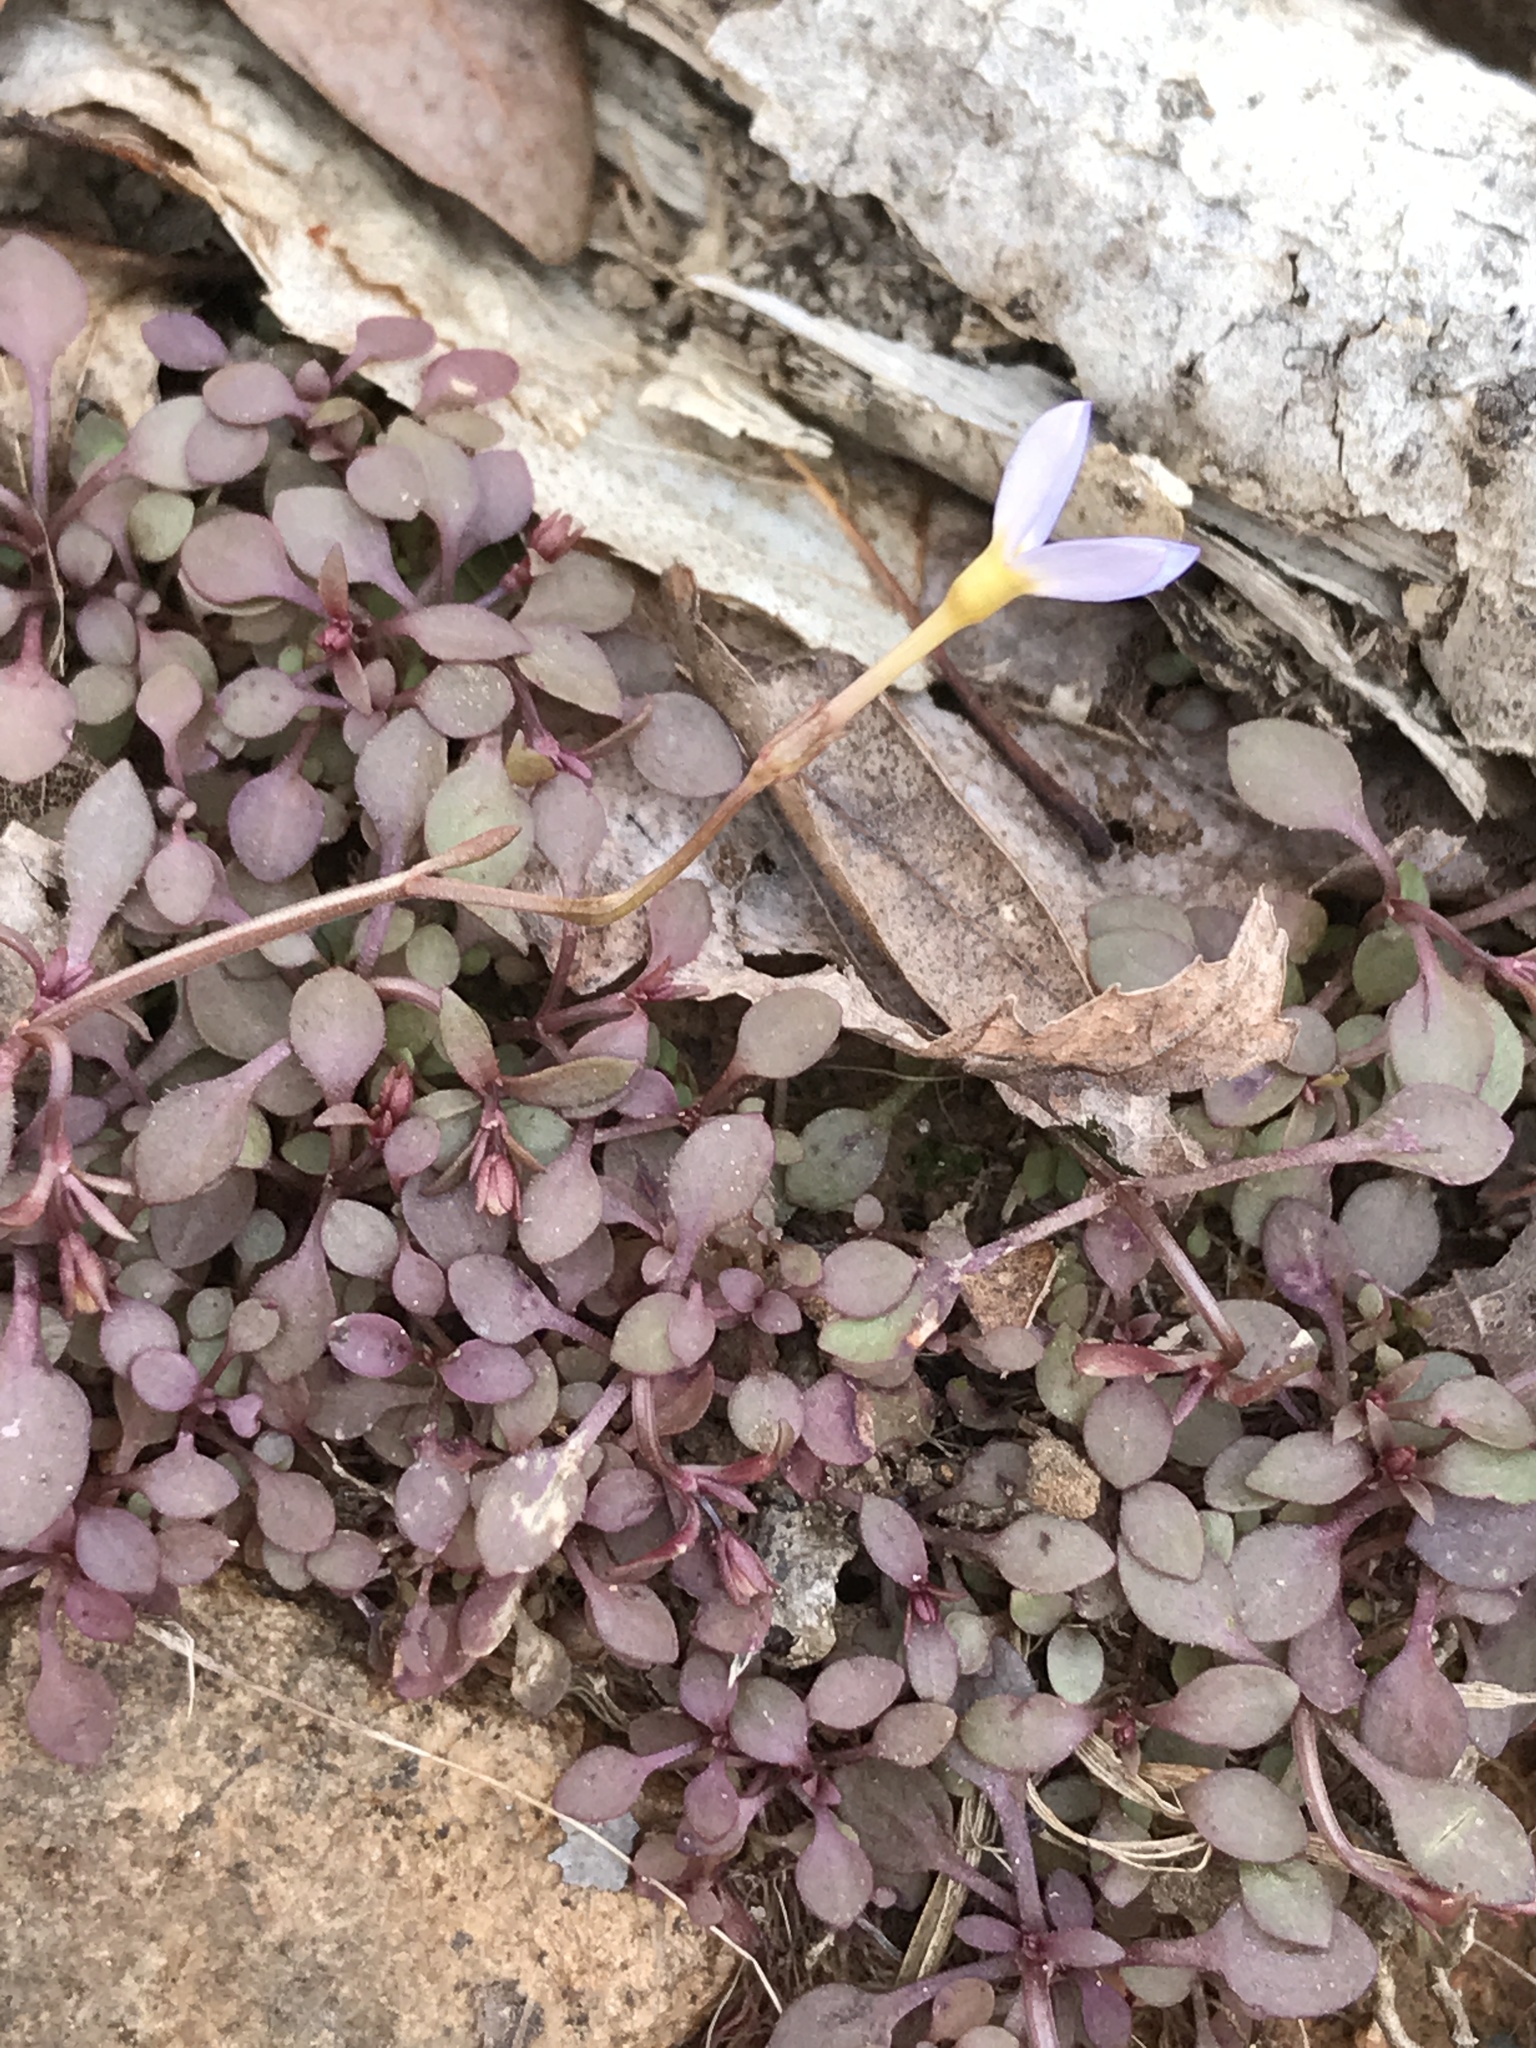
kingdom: Plantae
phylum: Tracheophyta
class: Magnoliopsida
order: Gentianales
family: Rubiaceae
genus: Houstonia
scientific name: Houstonia caerulea
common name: Bluets
